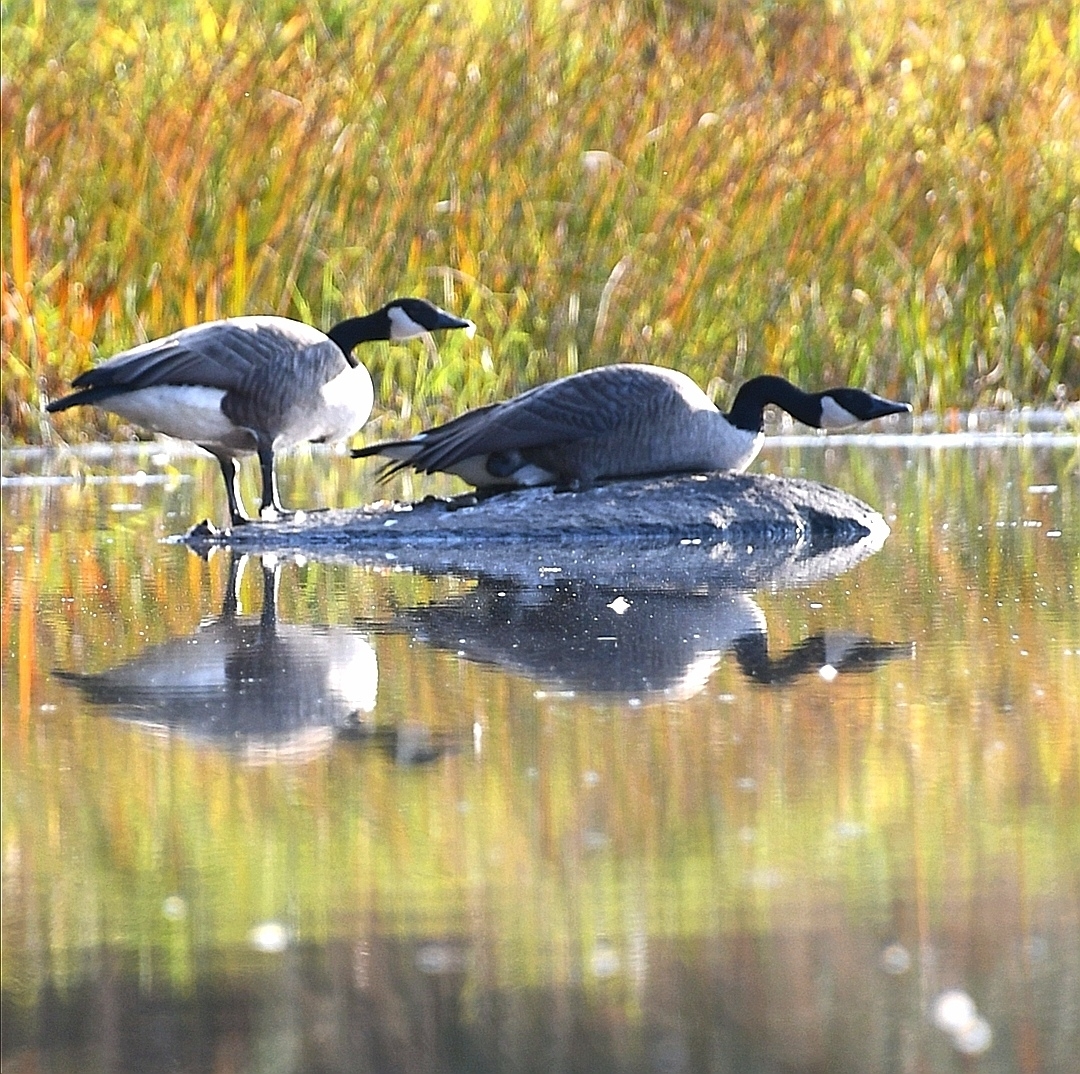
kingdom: Animalia
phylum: Chordata
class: Aves
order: Anseriformes
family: Anatidae
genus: Branta
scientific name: Branta canadensis
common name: Canada goose
